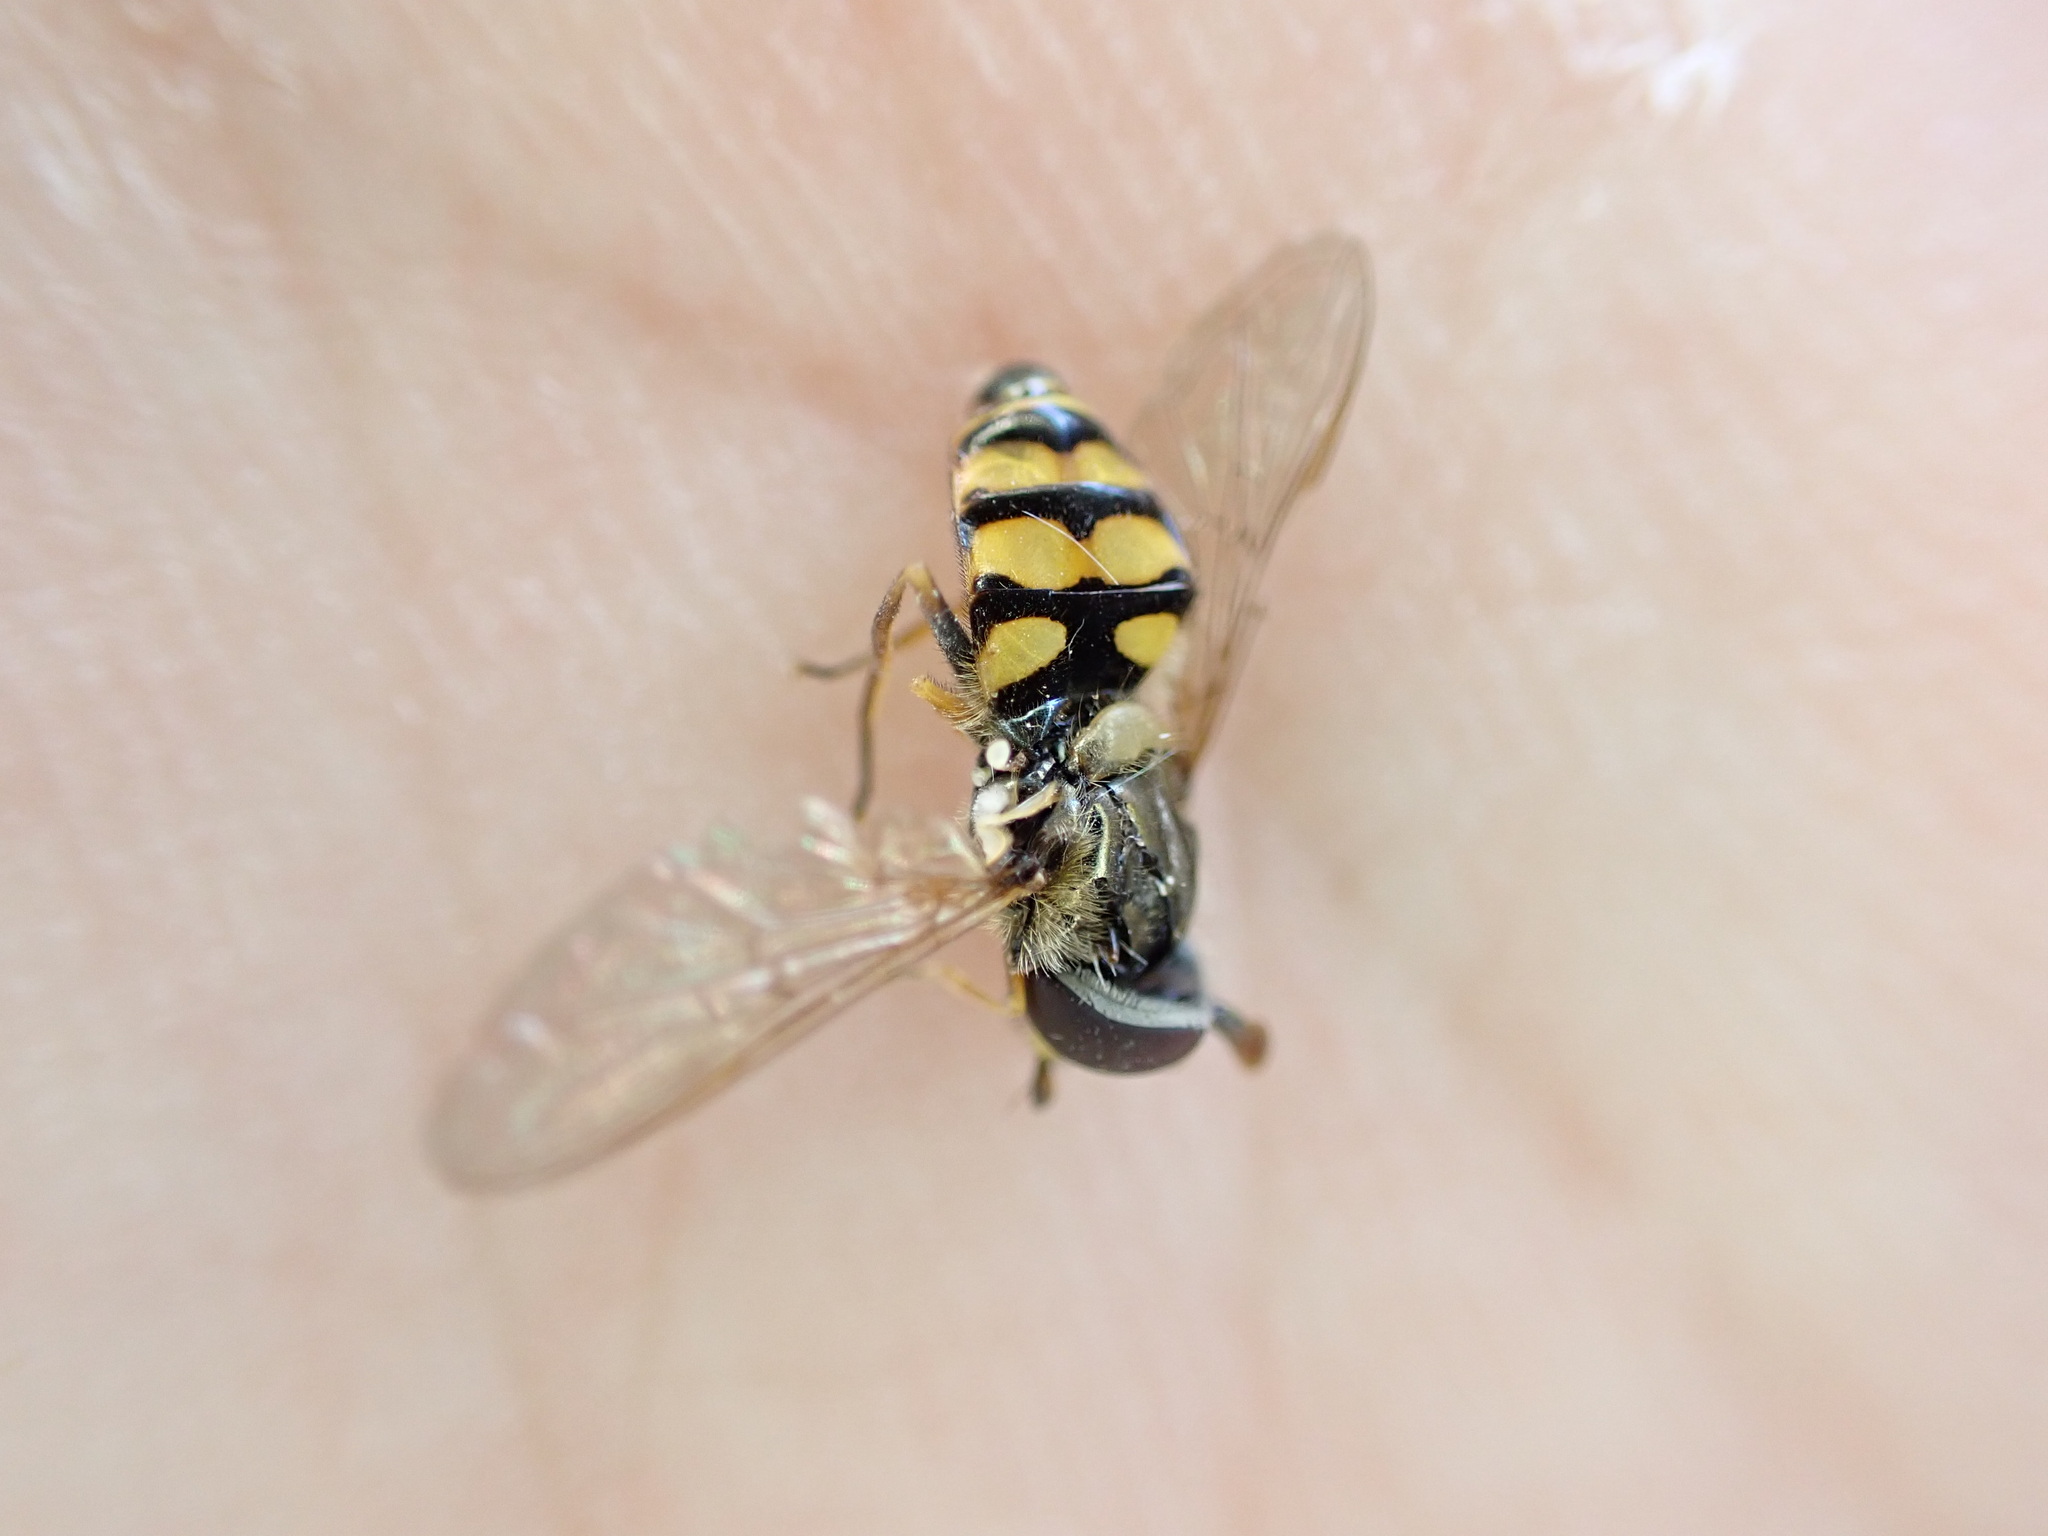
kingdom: Animalia
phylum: Arthropoda
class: Insecta
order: Diptera
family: Syrphidae
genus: Eupeodes
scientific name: Eupeodes corollae
